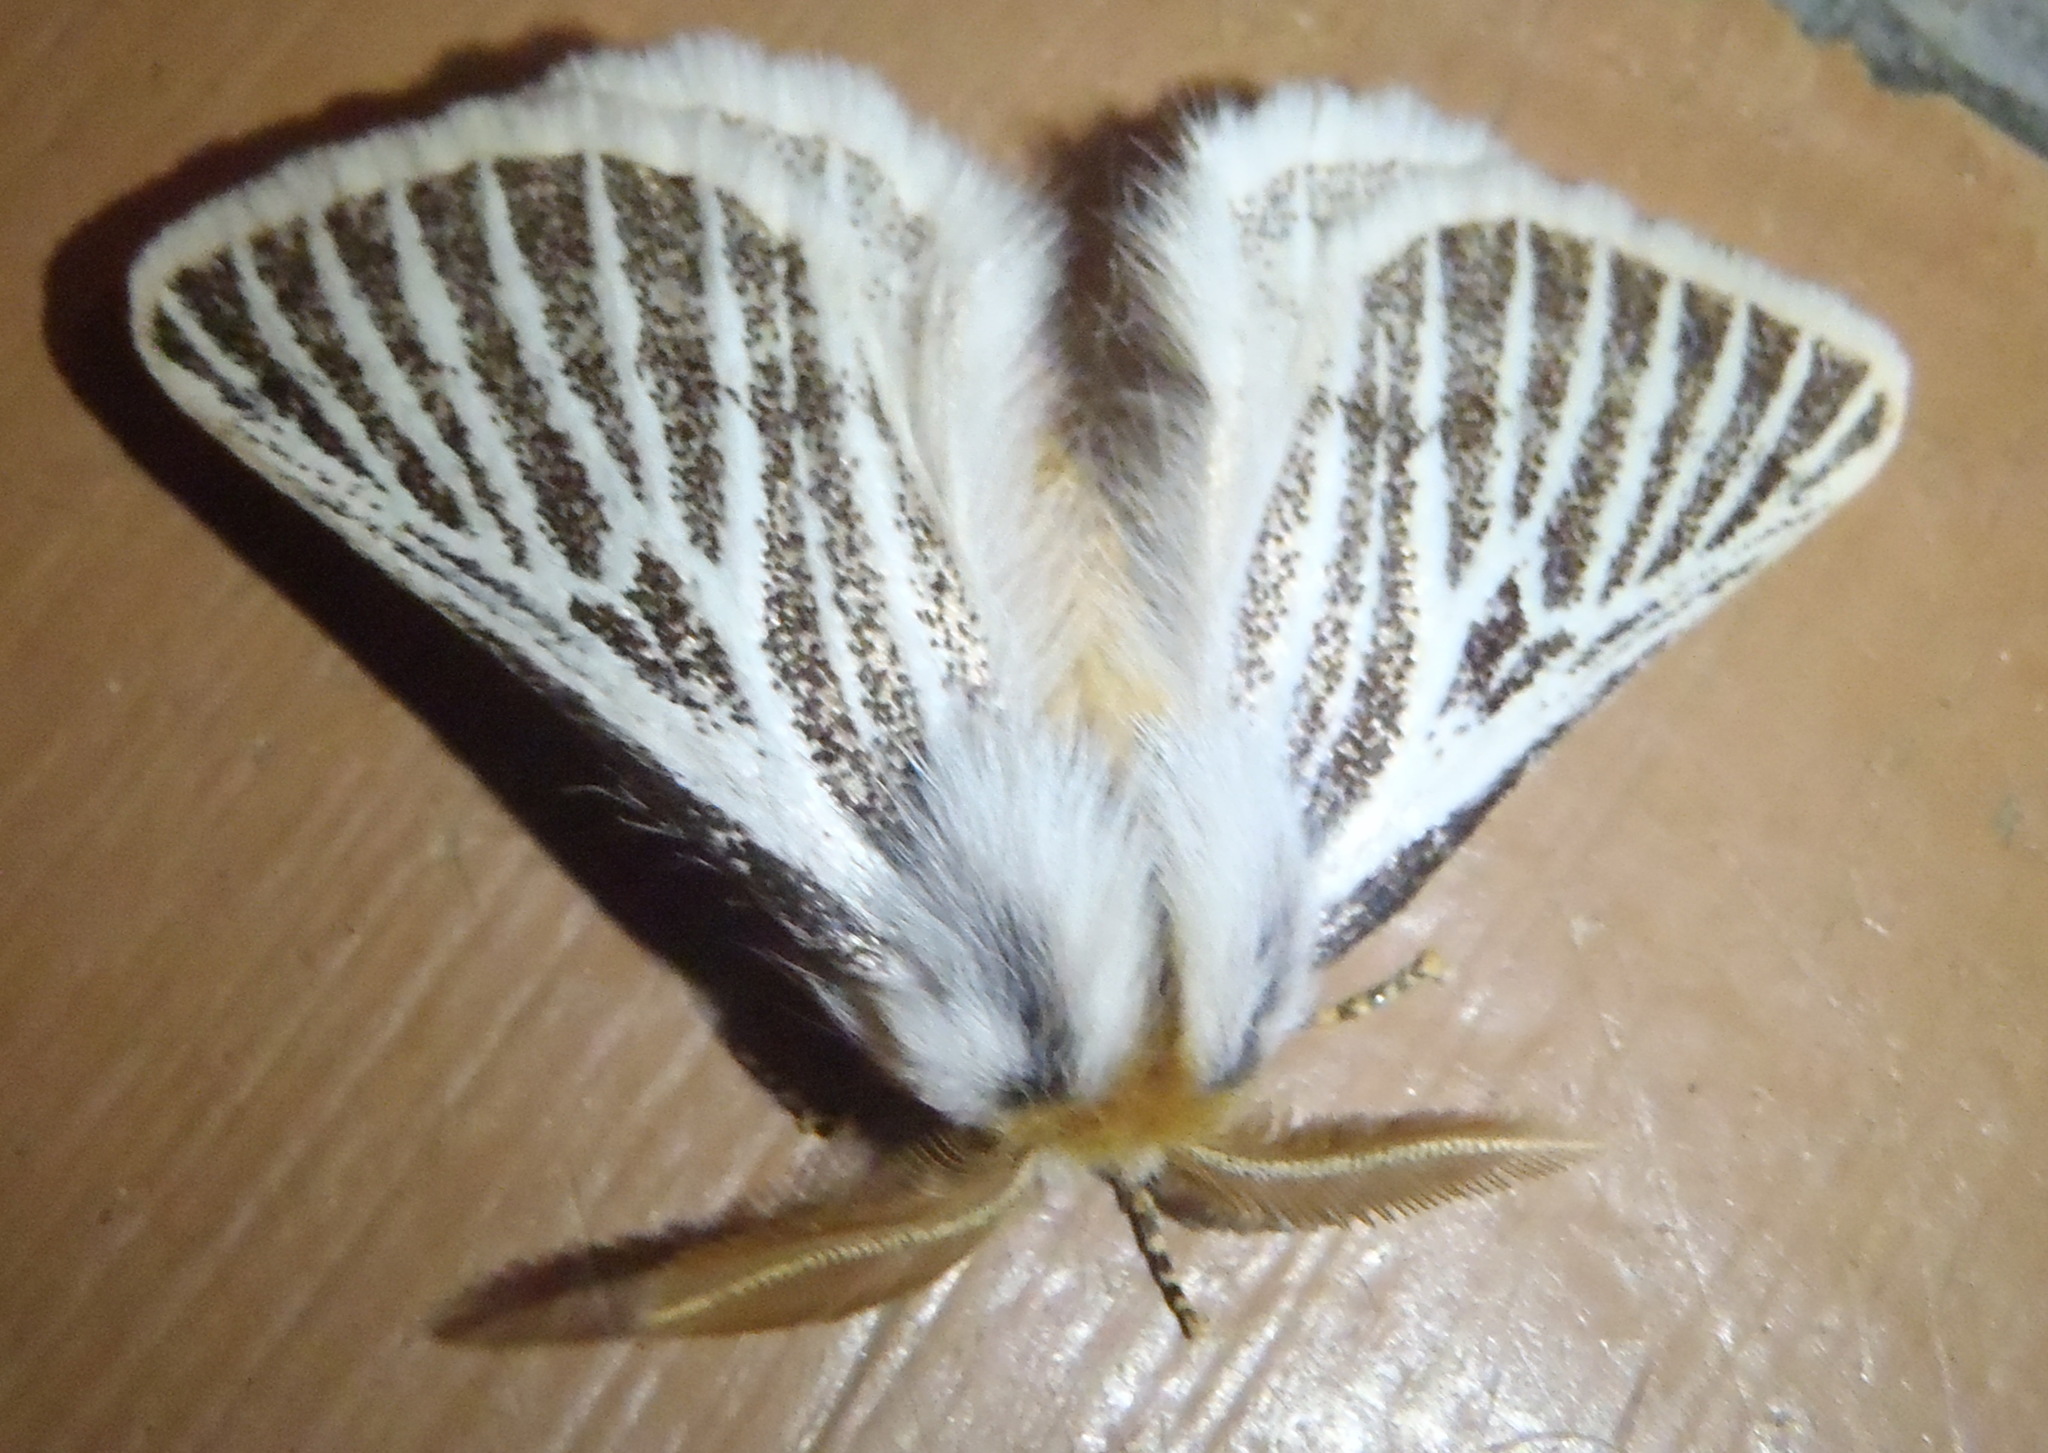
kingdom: Animalia
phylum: Arthropoda
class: Insecta
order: Lepidoptera
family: Eupterotidae
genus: Rhabdosia
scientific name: Rhabdosia vaninia
